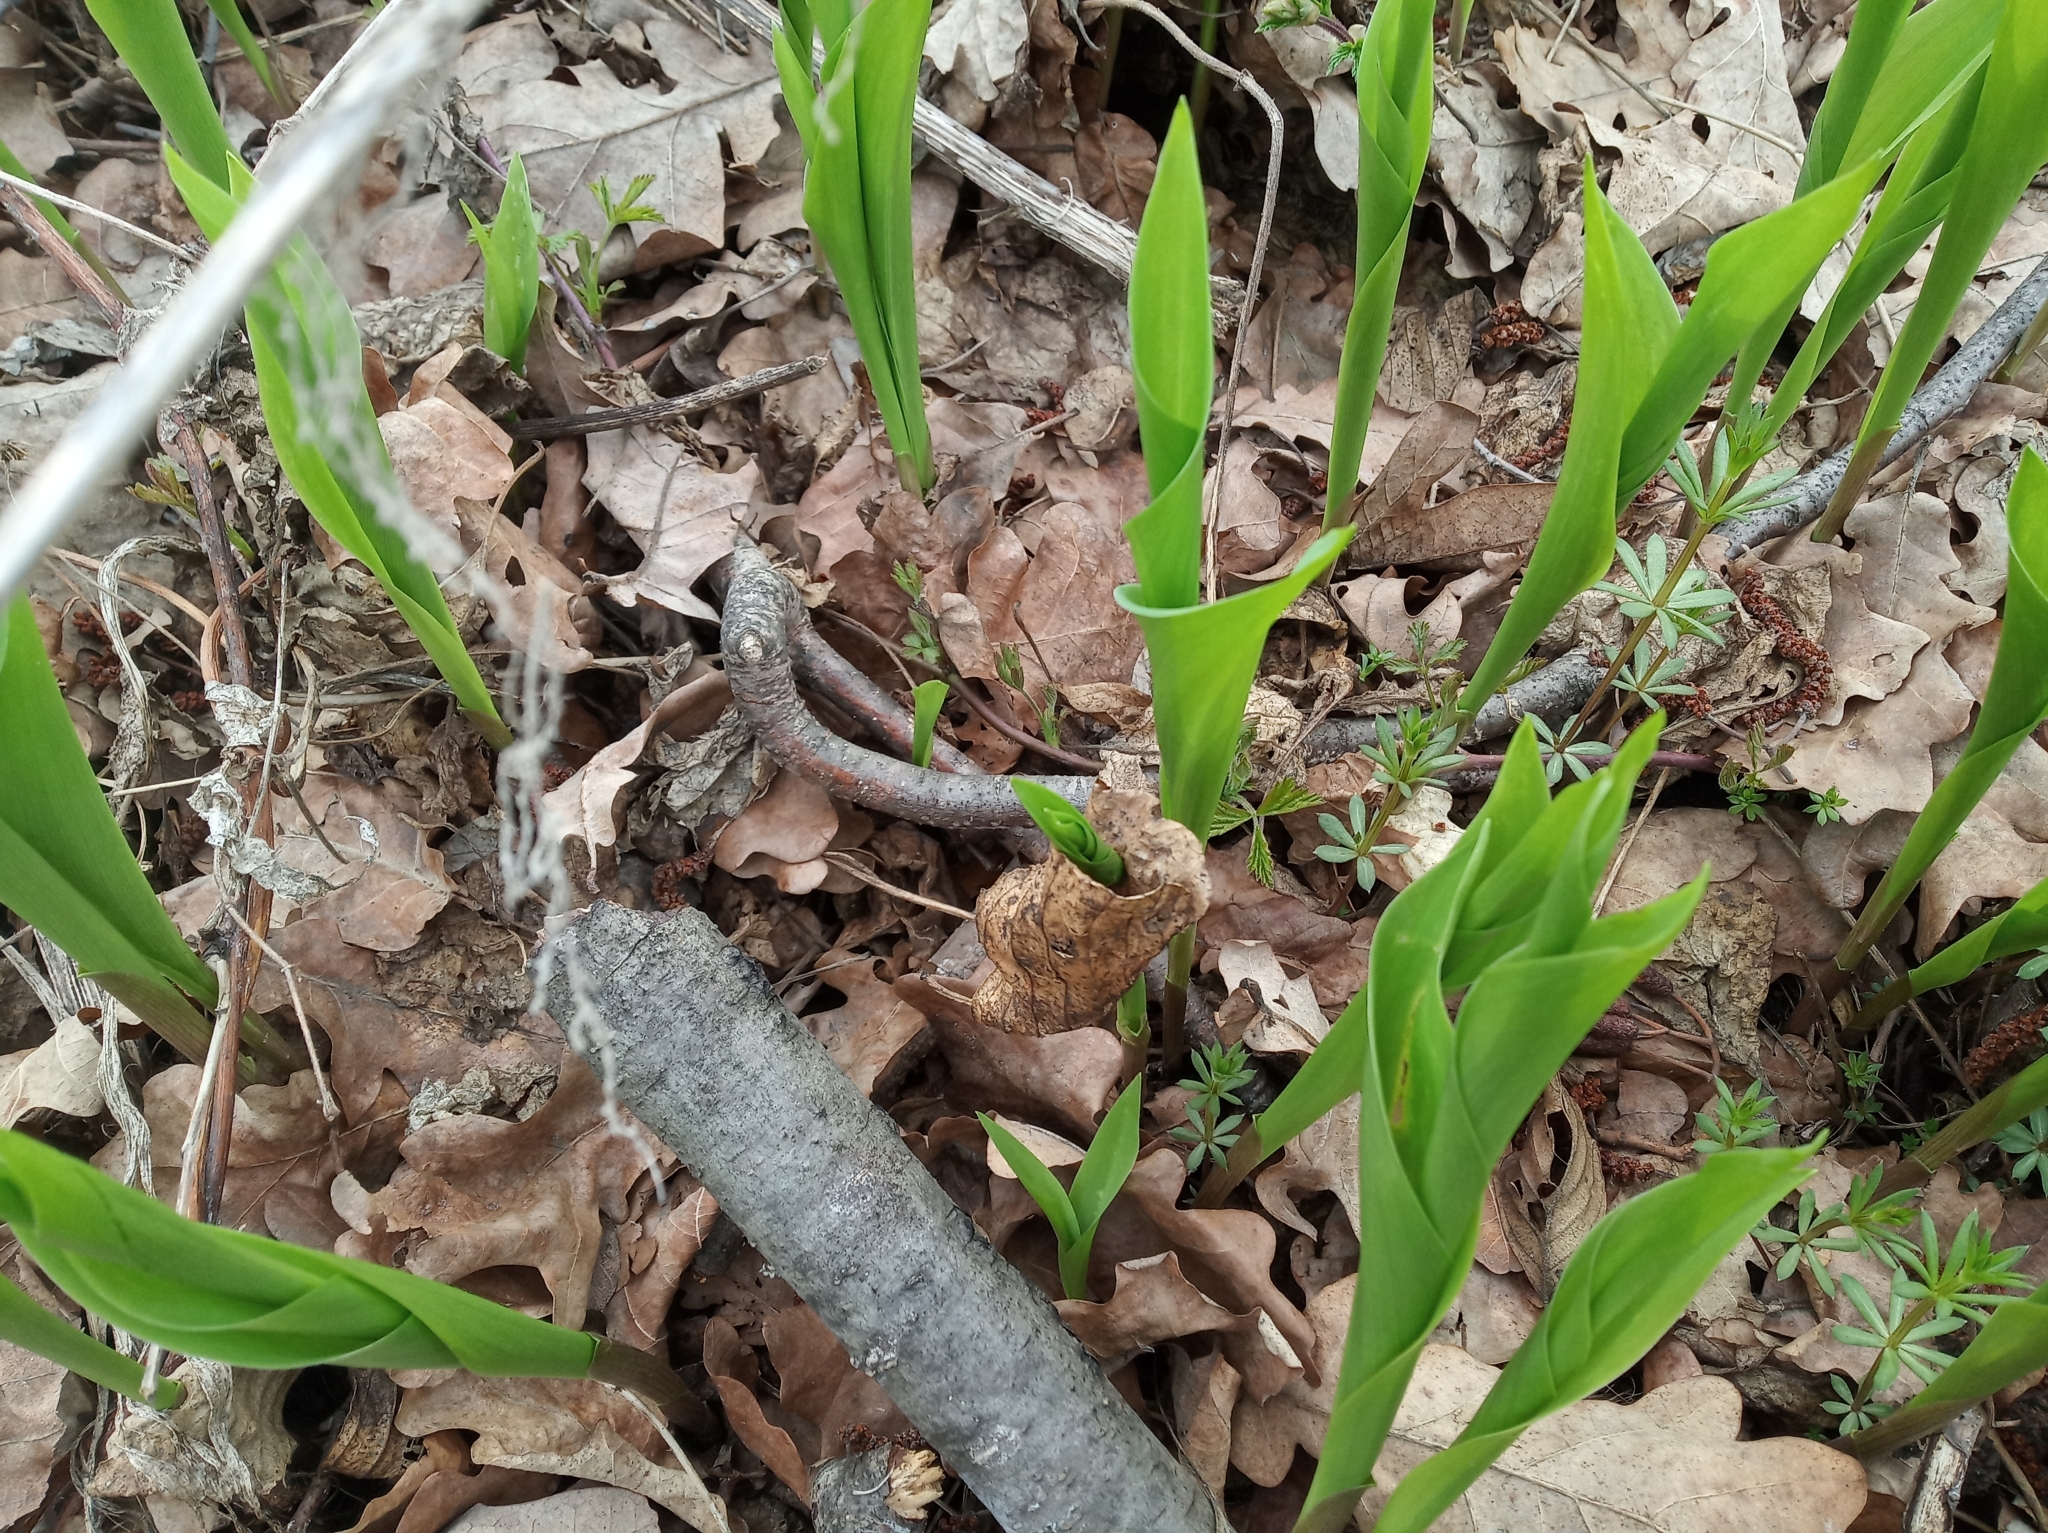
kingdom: Plantae
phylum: Tracheophyta
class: Liliopsida
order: Asparagales
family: Asparagaceae
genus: Convallaria
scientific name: Convallaria majalis
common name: Lily-of-the-valley
